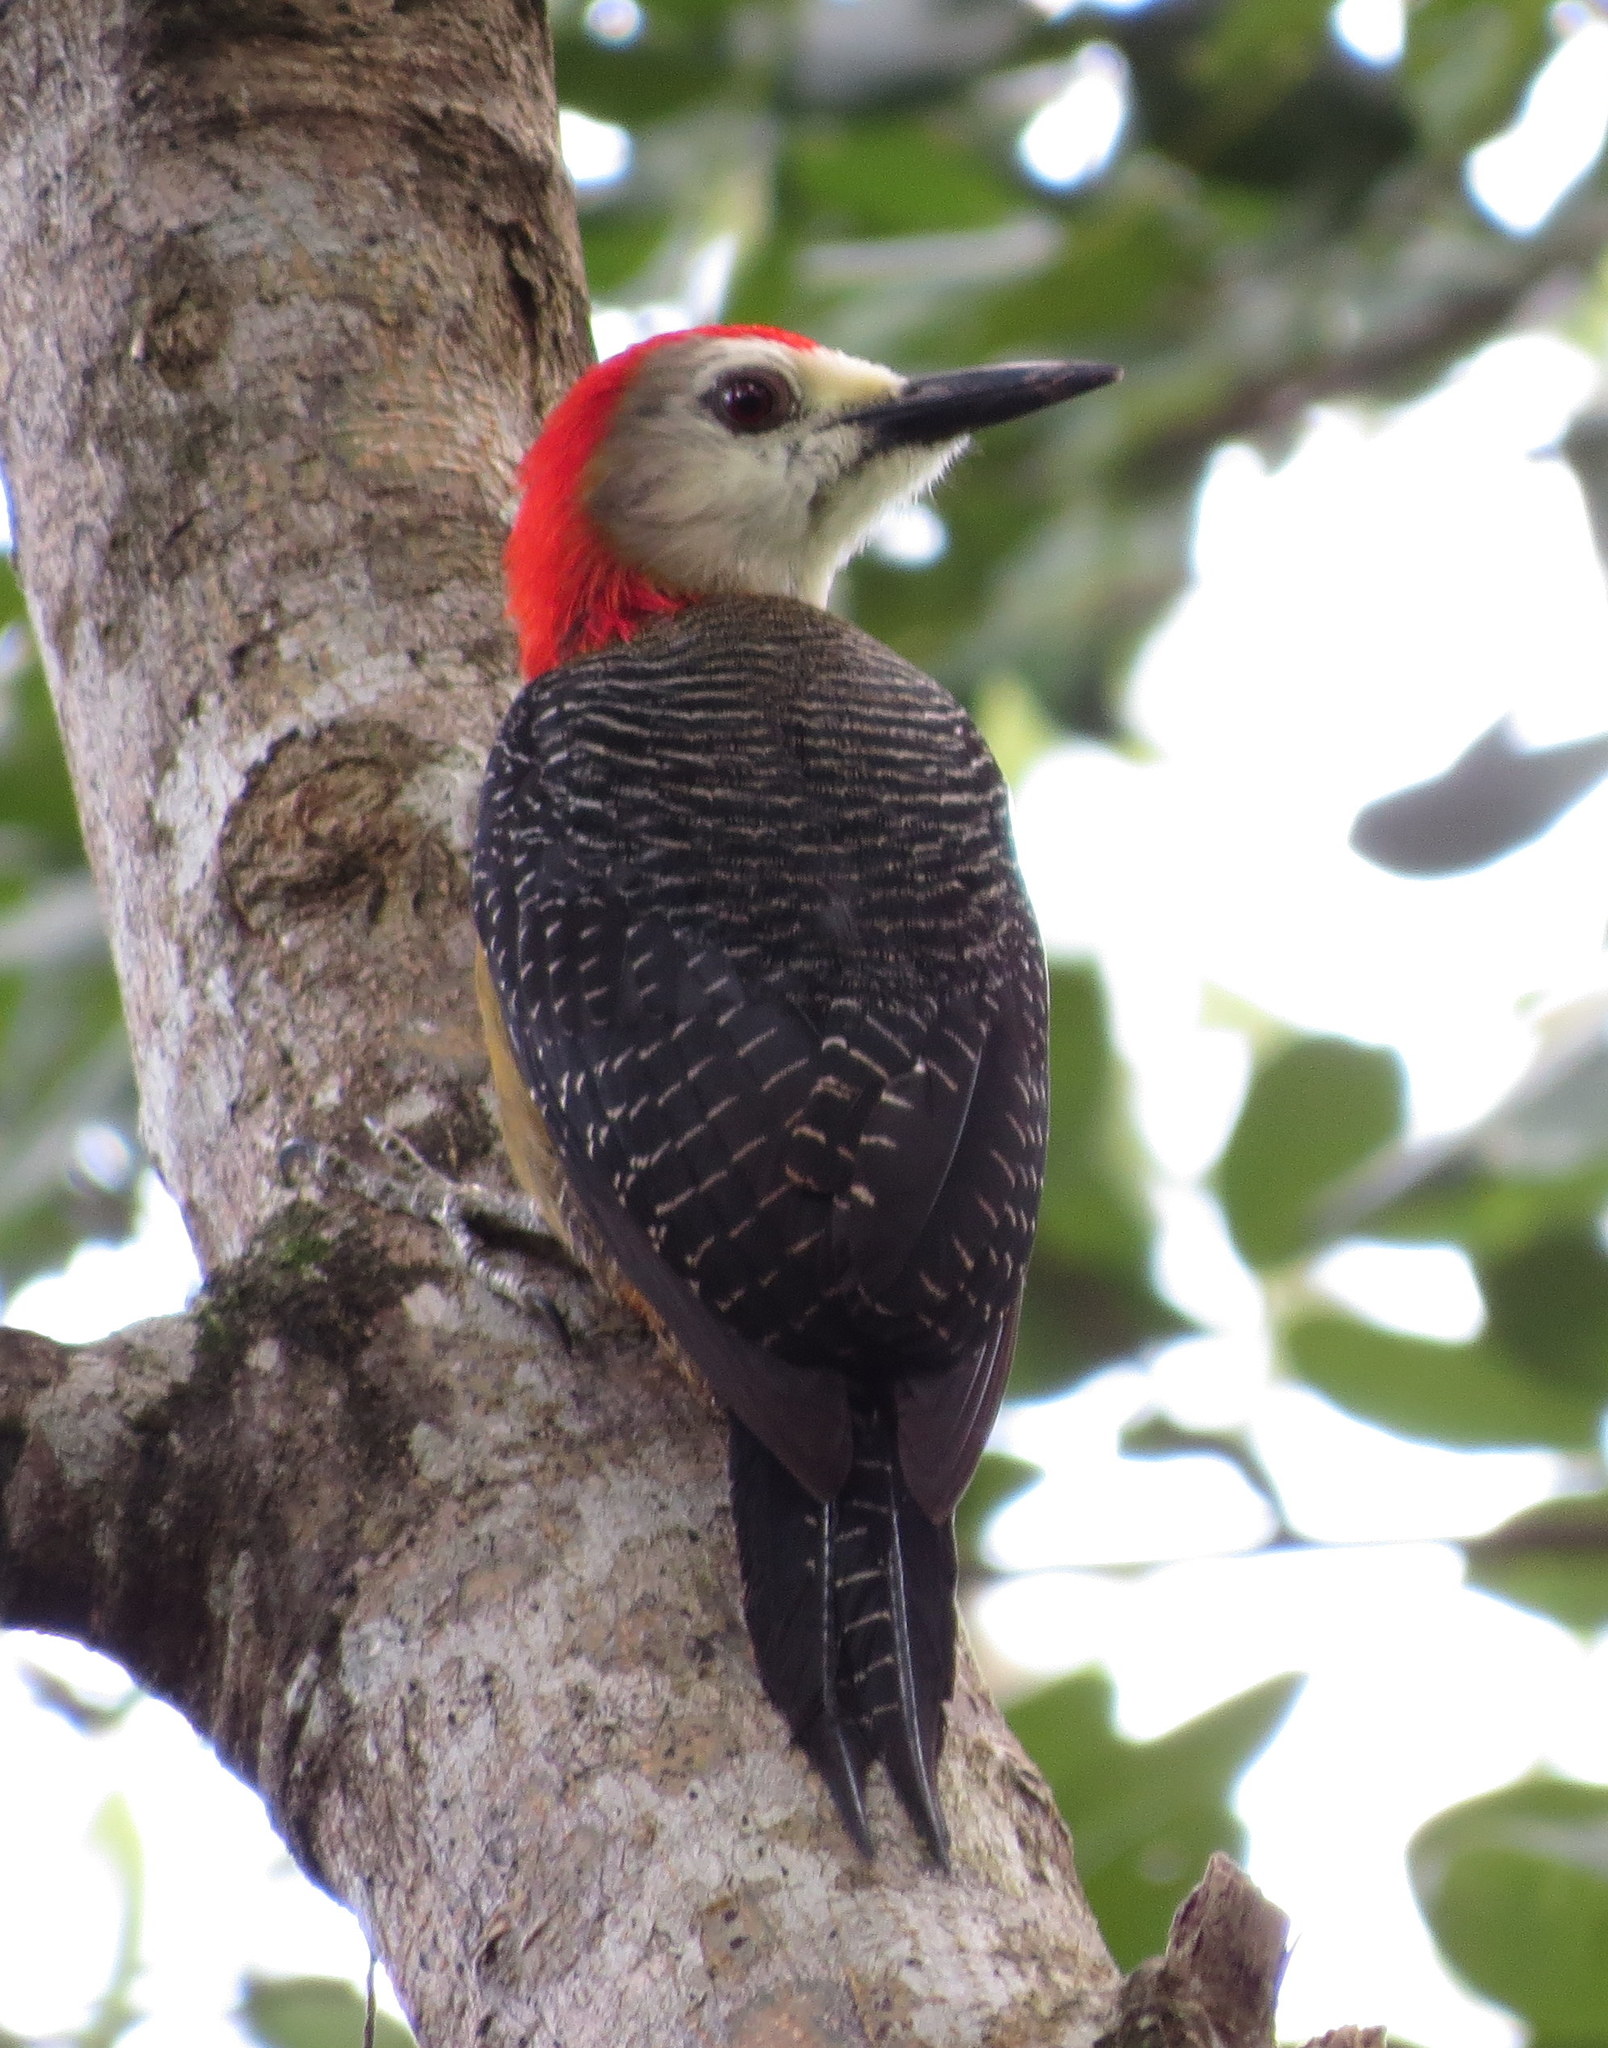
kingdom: Animalia
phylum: Chordata
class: Aves
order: Piciformes
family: Picidae
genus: Melanerpes
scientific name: Melanerpes radiolatus
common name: Jamaican woodpecker
